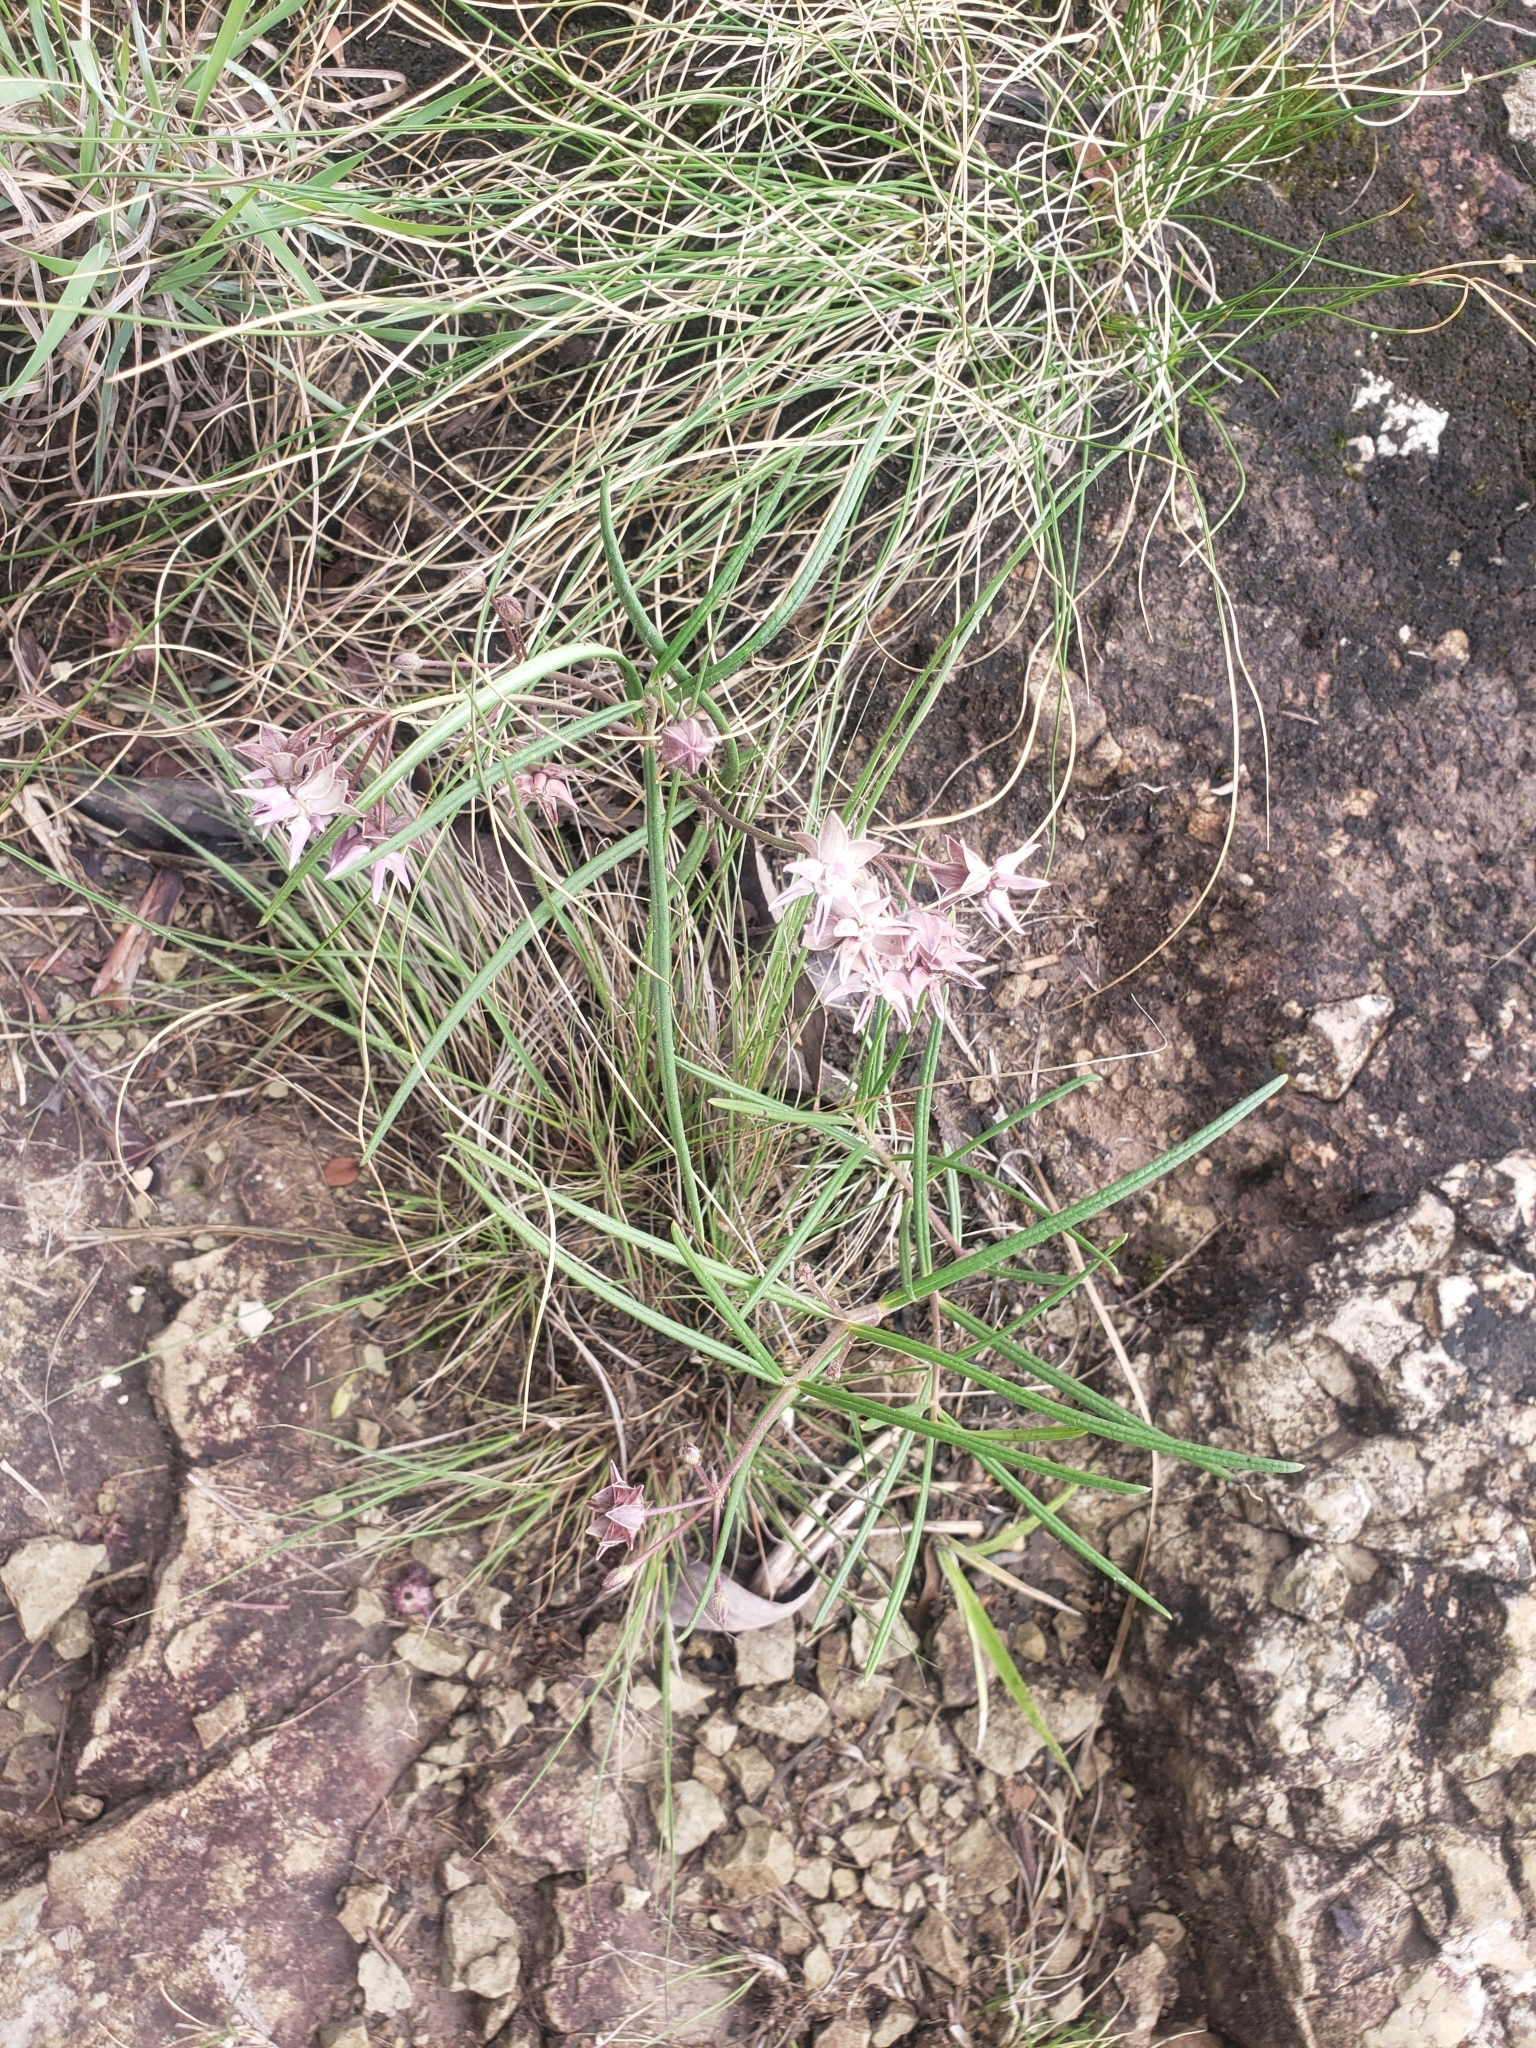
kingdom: Plantae
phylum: Tracheophyta
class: Magnoliopsida
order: Gentianales
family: Apocynaceae
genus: Asclepias
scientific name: Asclepias stellifera
